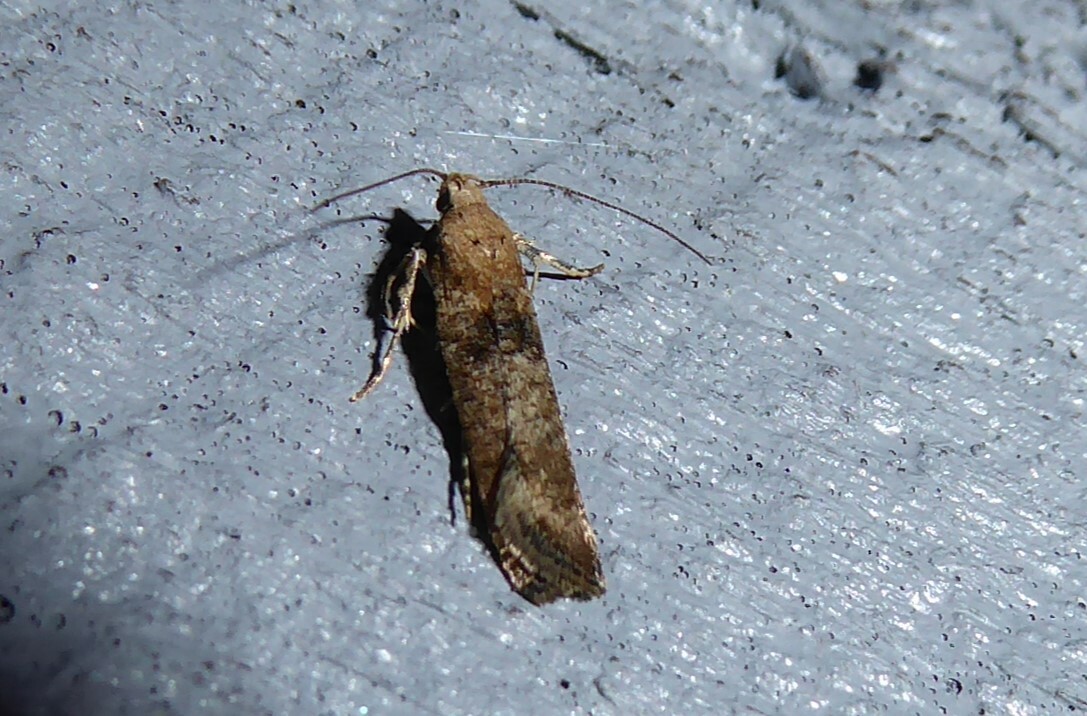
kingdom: Animalia
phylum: Arthropoda
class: Insecta
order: Lepidoptera
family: Gelechiidae
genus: Anisoplaca
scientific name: Anisoplaca acrodactyla
